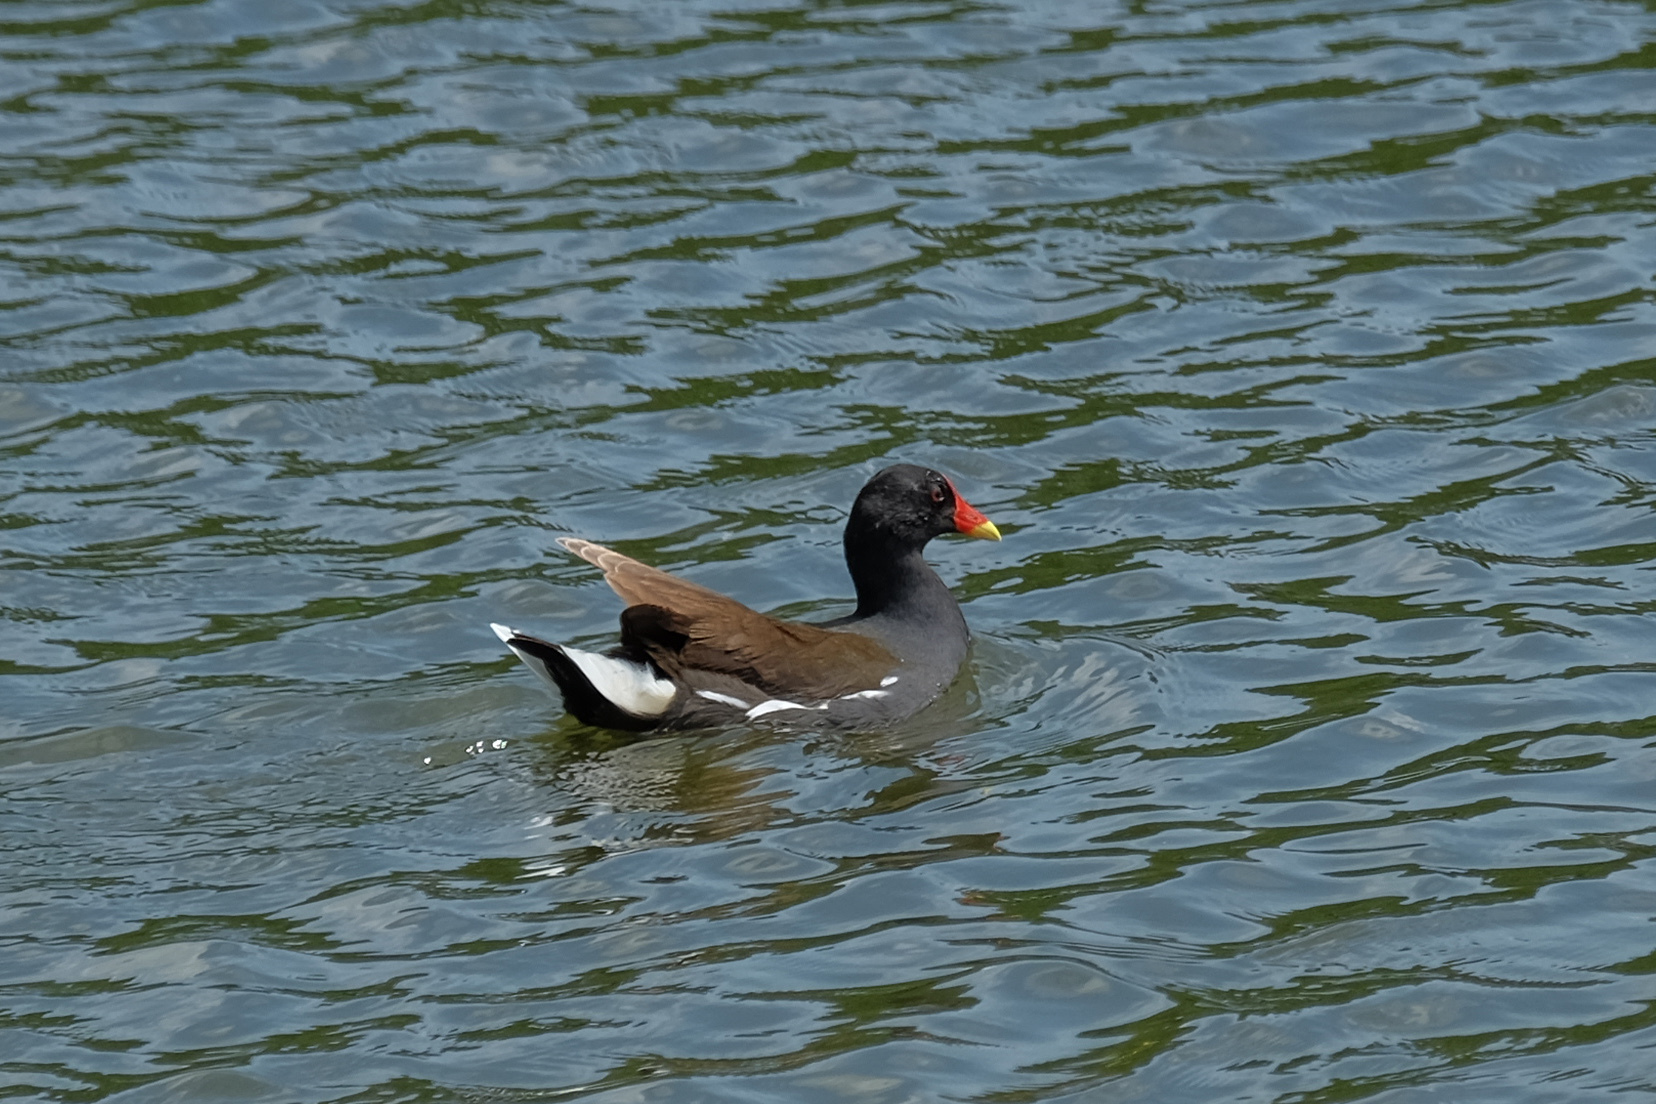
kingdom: Animalia
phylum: Chordata
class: Aves
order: Gruiformes
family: Rallidae
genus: Gallinula
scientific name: Gallinula chloropus
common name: Common moorhen
